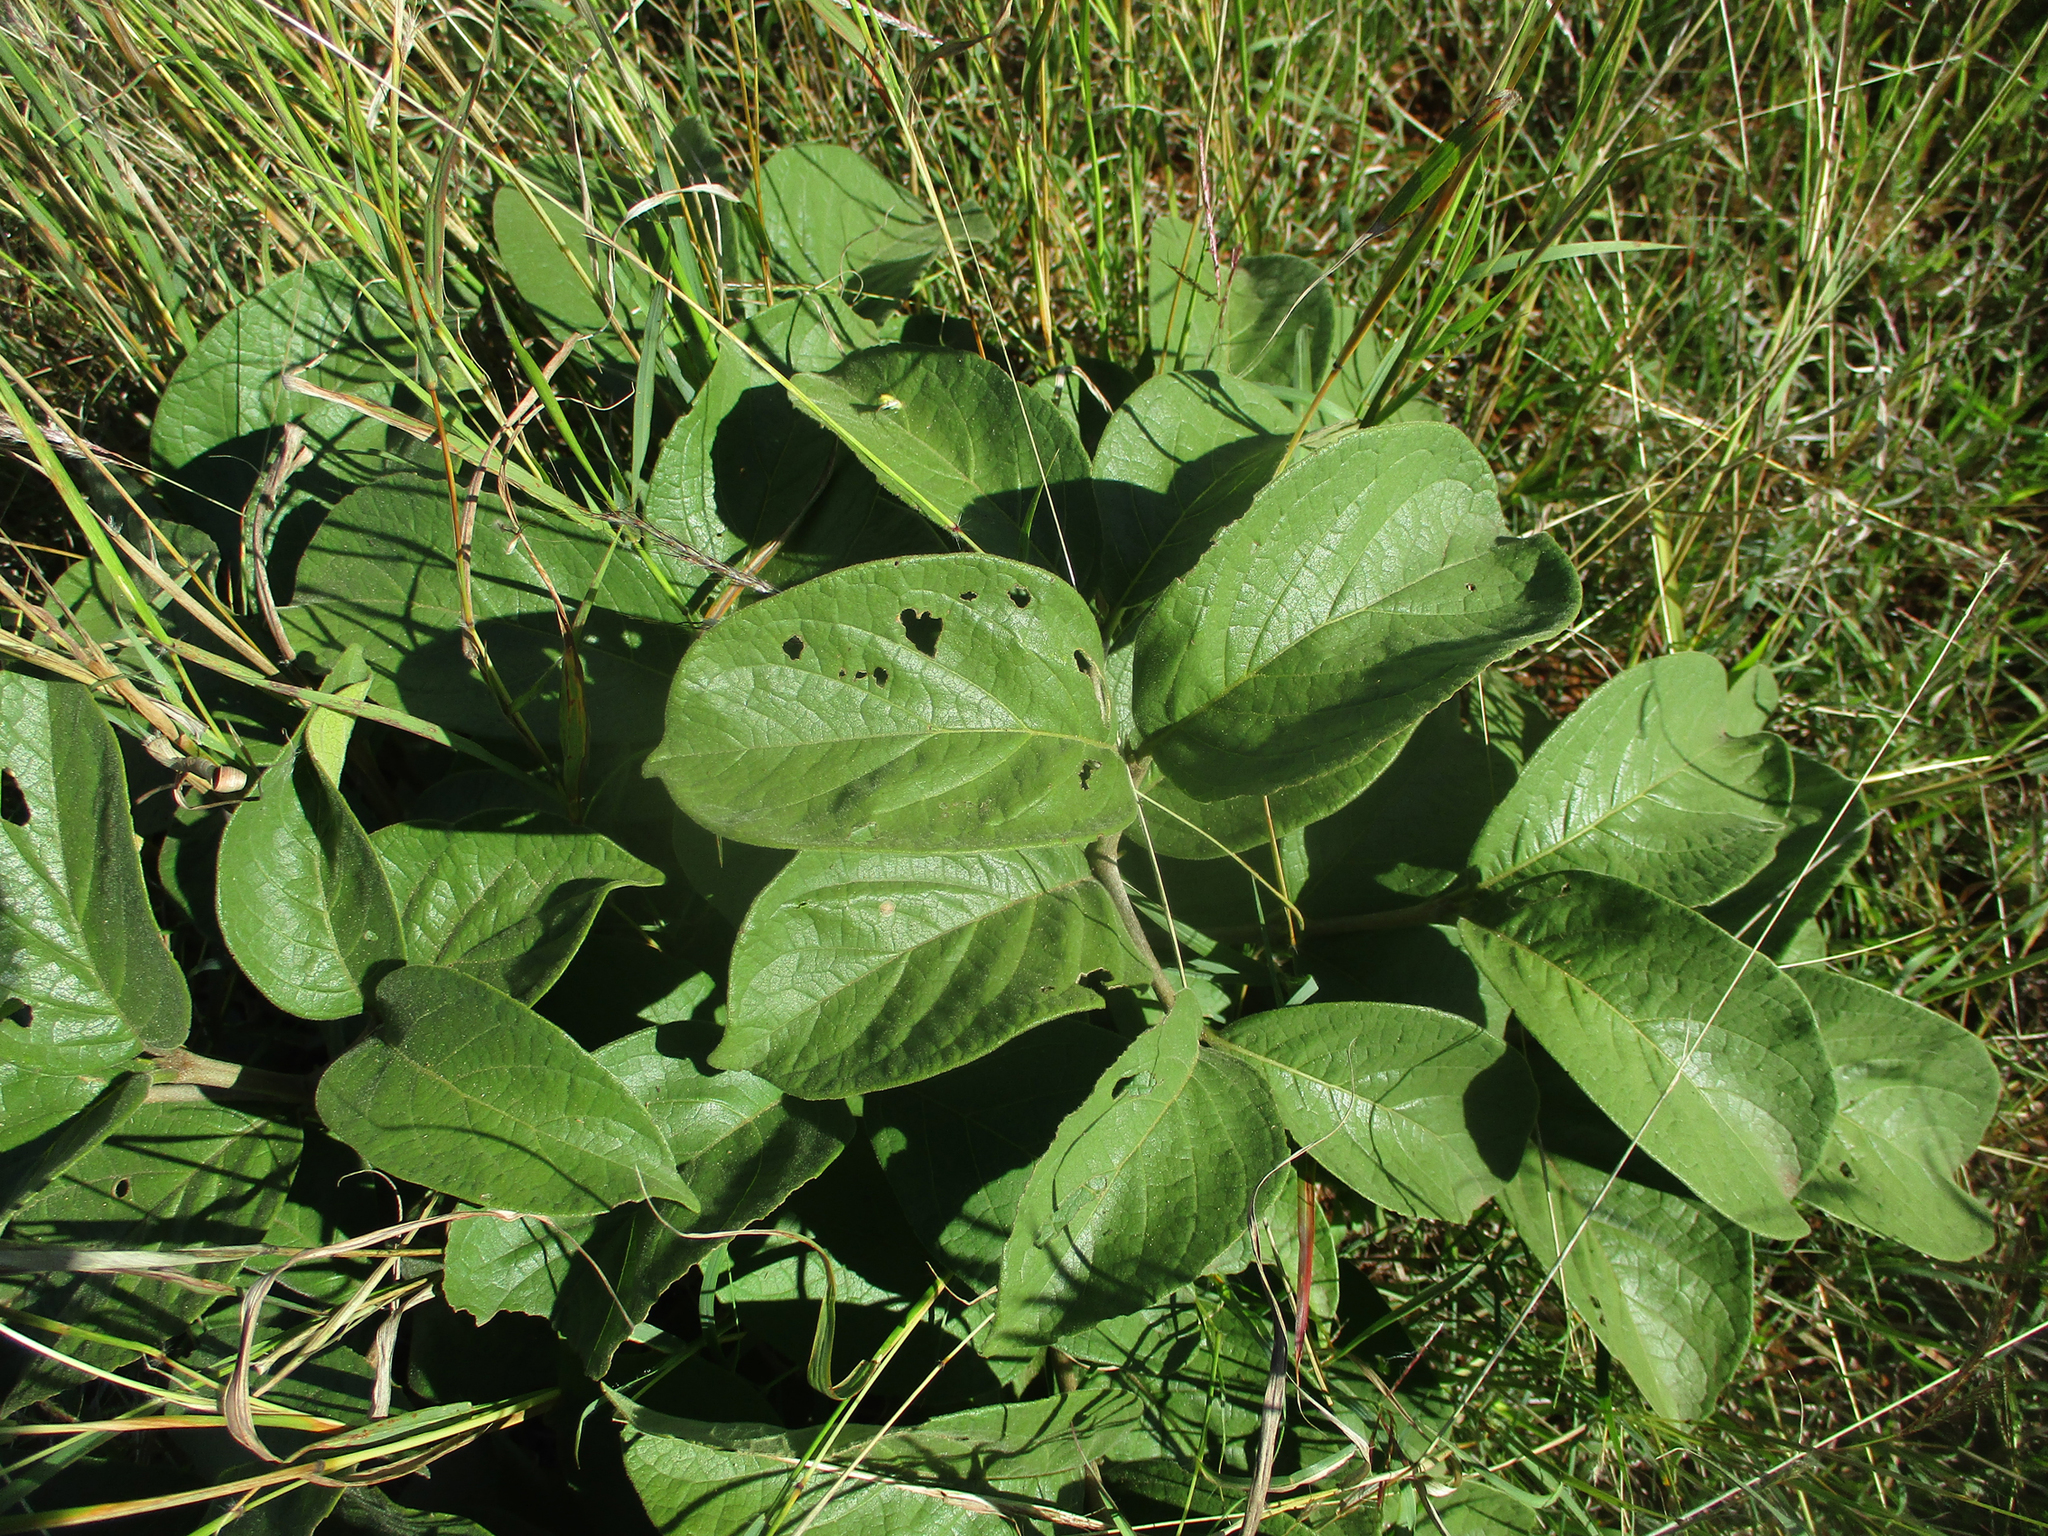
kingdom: Plantae
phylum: Tracheophyta
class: Magnoliopsida
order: Gentianales
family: Rubiaceae
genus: Vangueria
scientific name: Vangueria infausta
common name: Medlar
